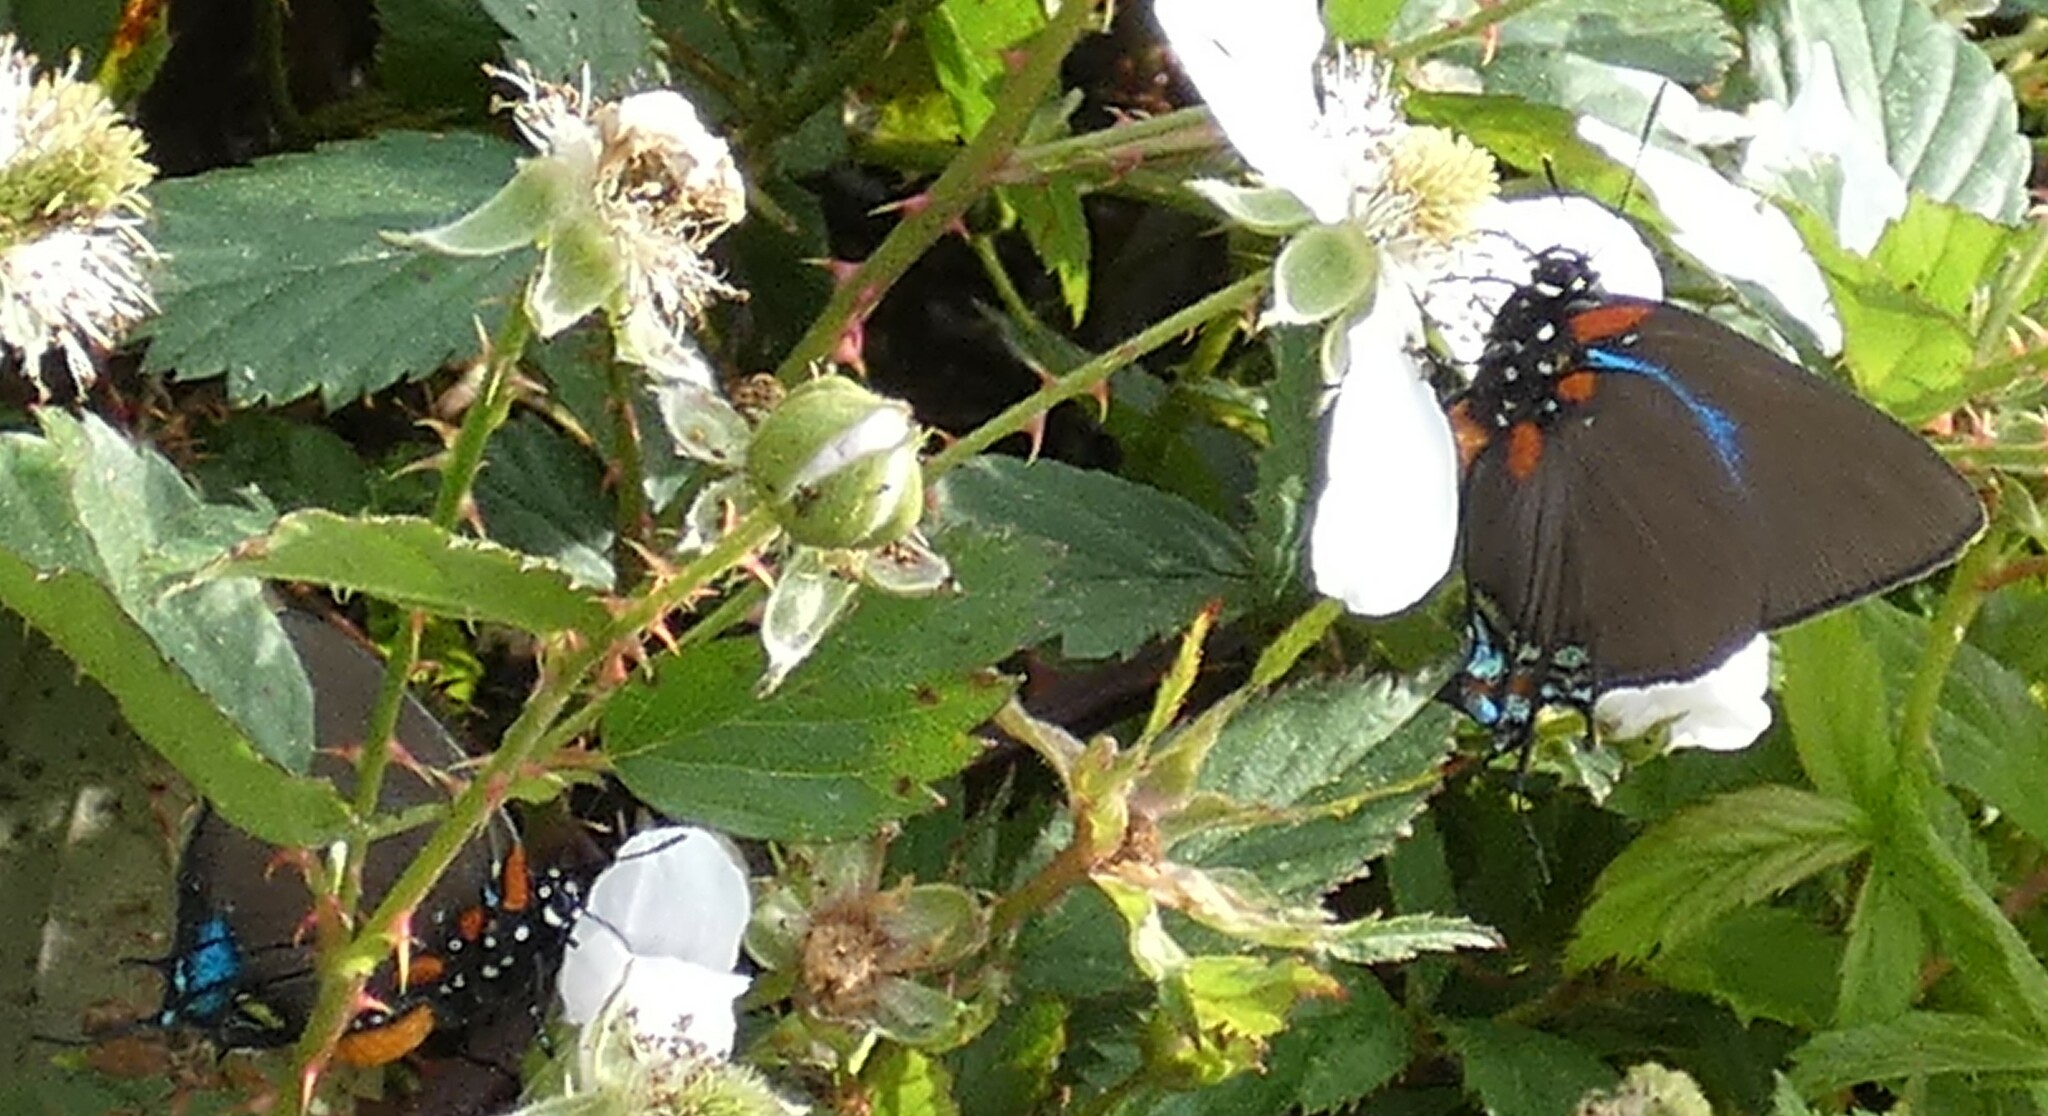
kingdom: Animalia
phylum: Arthropoda
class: Insecta
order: Lepidoptera
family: Lycaenidae
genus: Atlides
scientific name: Atlides halesus
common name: Great purple hairstreak
